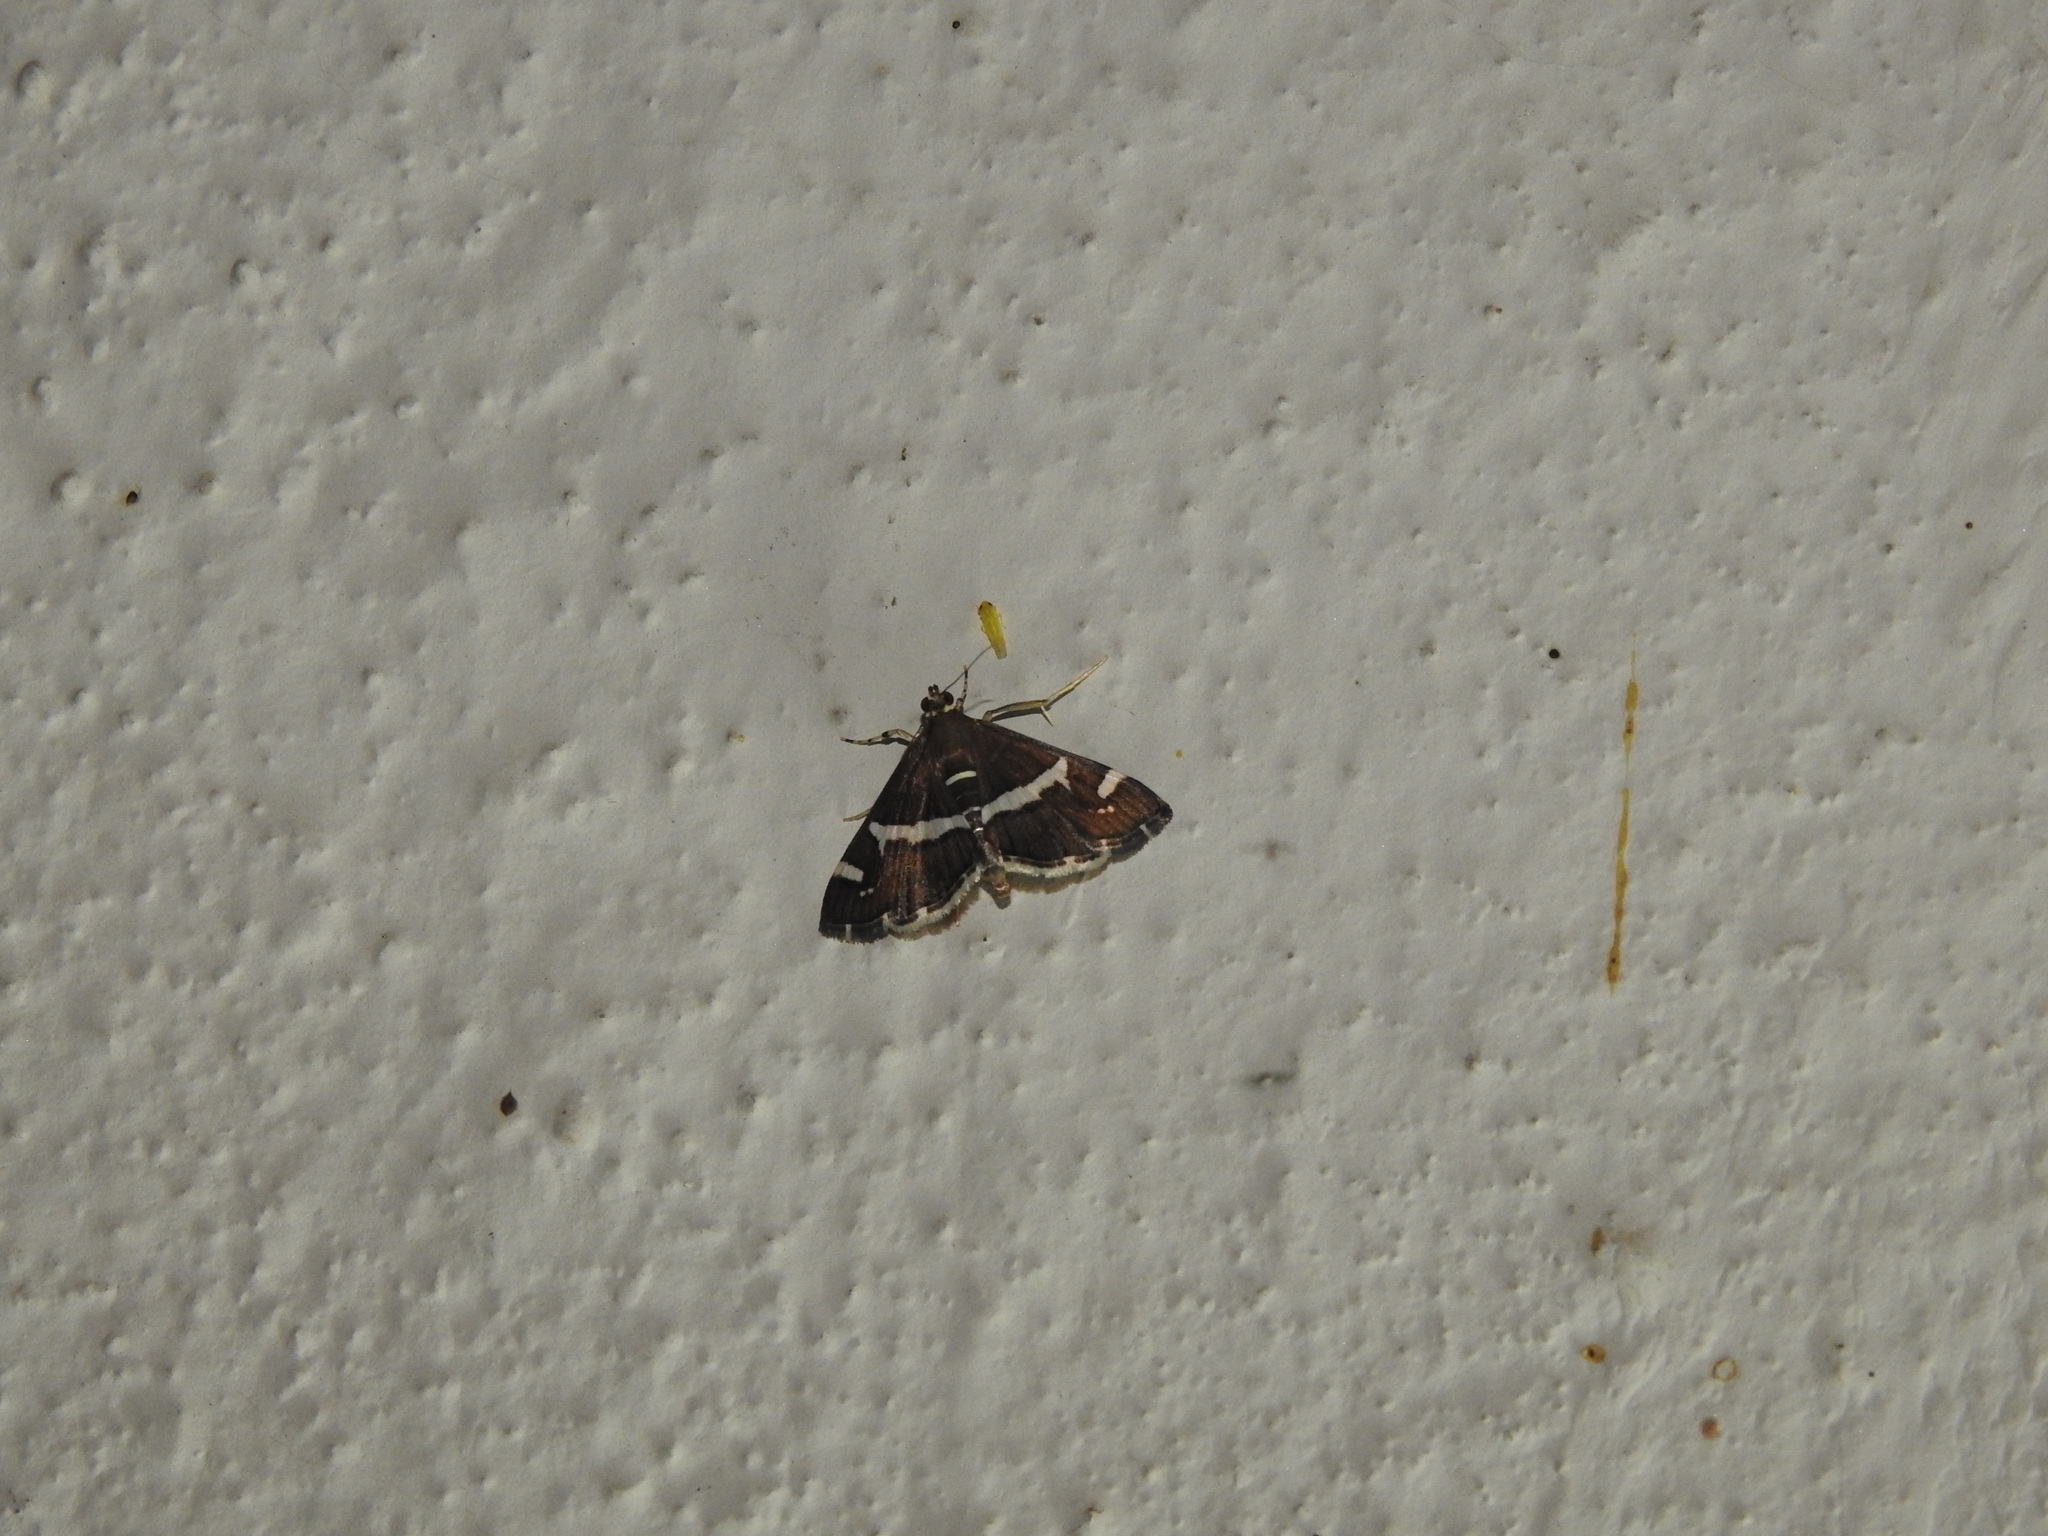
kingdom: Animalia
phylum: Arthropoda
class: Insecta
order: Lepidoptera
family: Crambidae
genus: Spoladea
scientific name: Spoladea recurvalis
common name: Beet webworm moth
